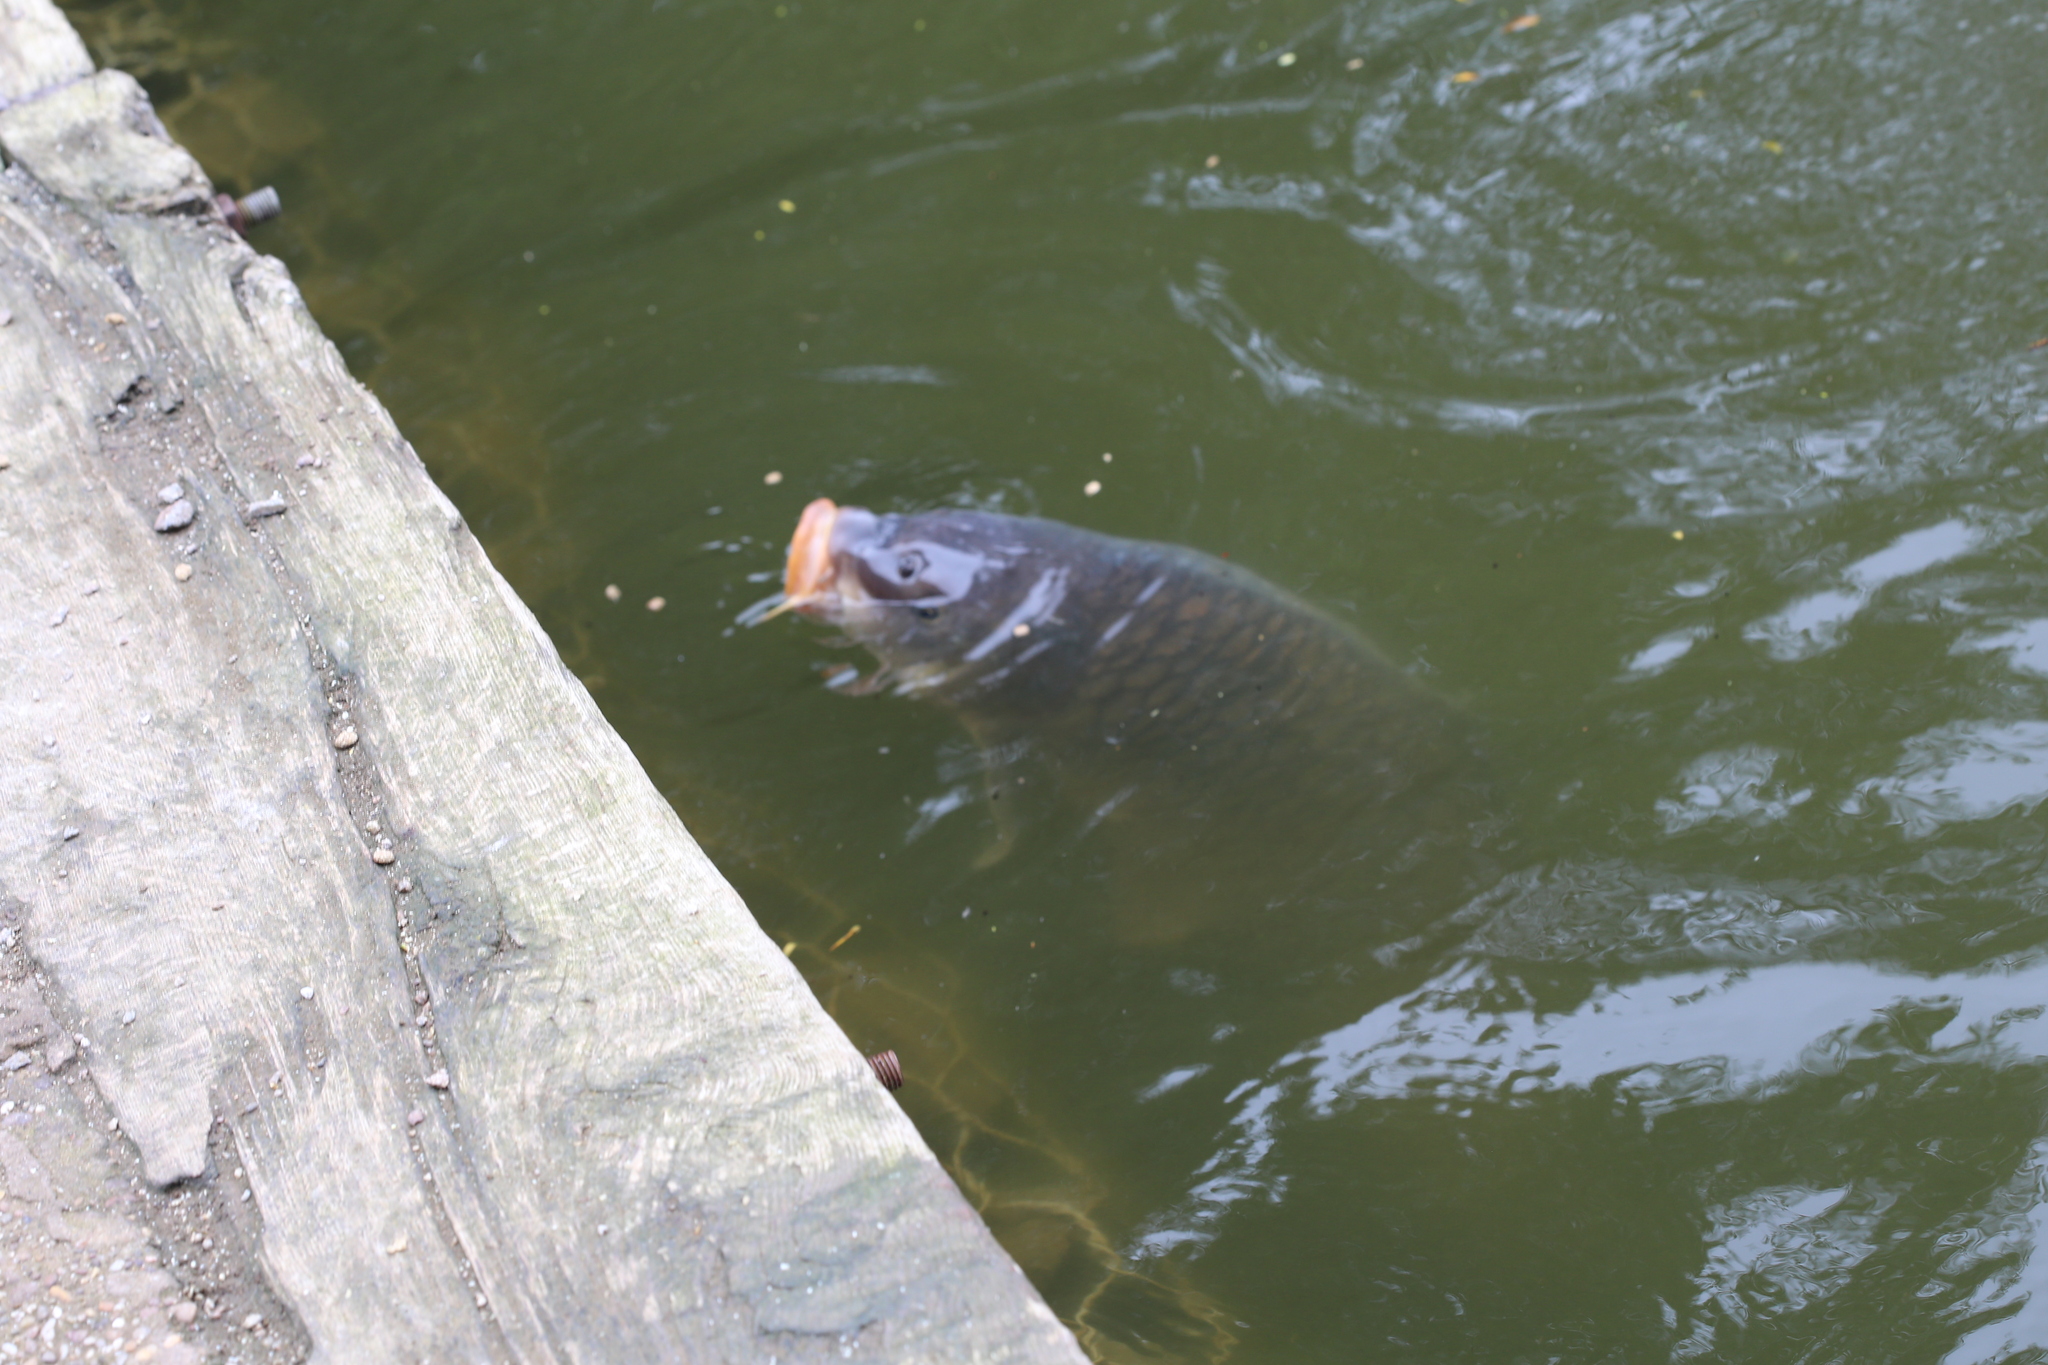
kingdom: Animalia
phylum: Chordata
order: Cypriniformes
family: Cyprinidae
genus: Cyprinus
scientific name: Cyprinus carpio
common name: Common carp
